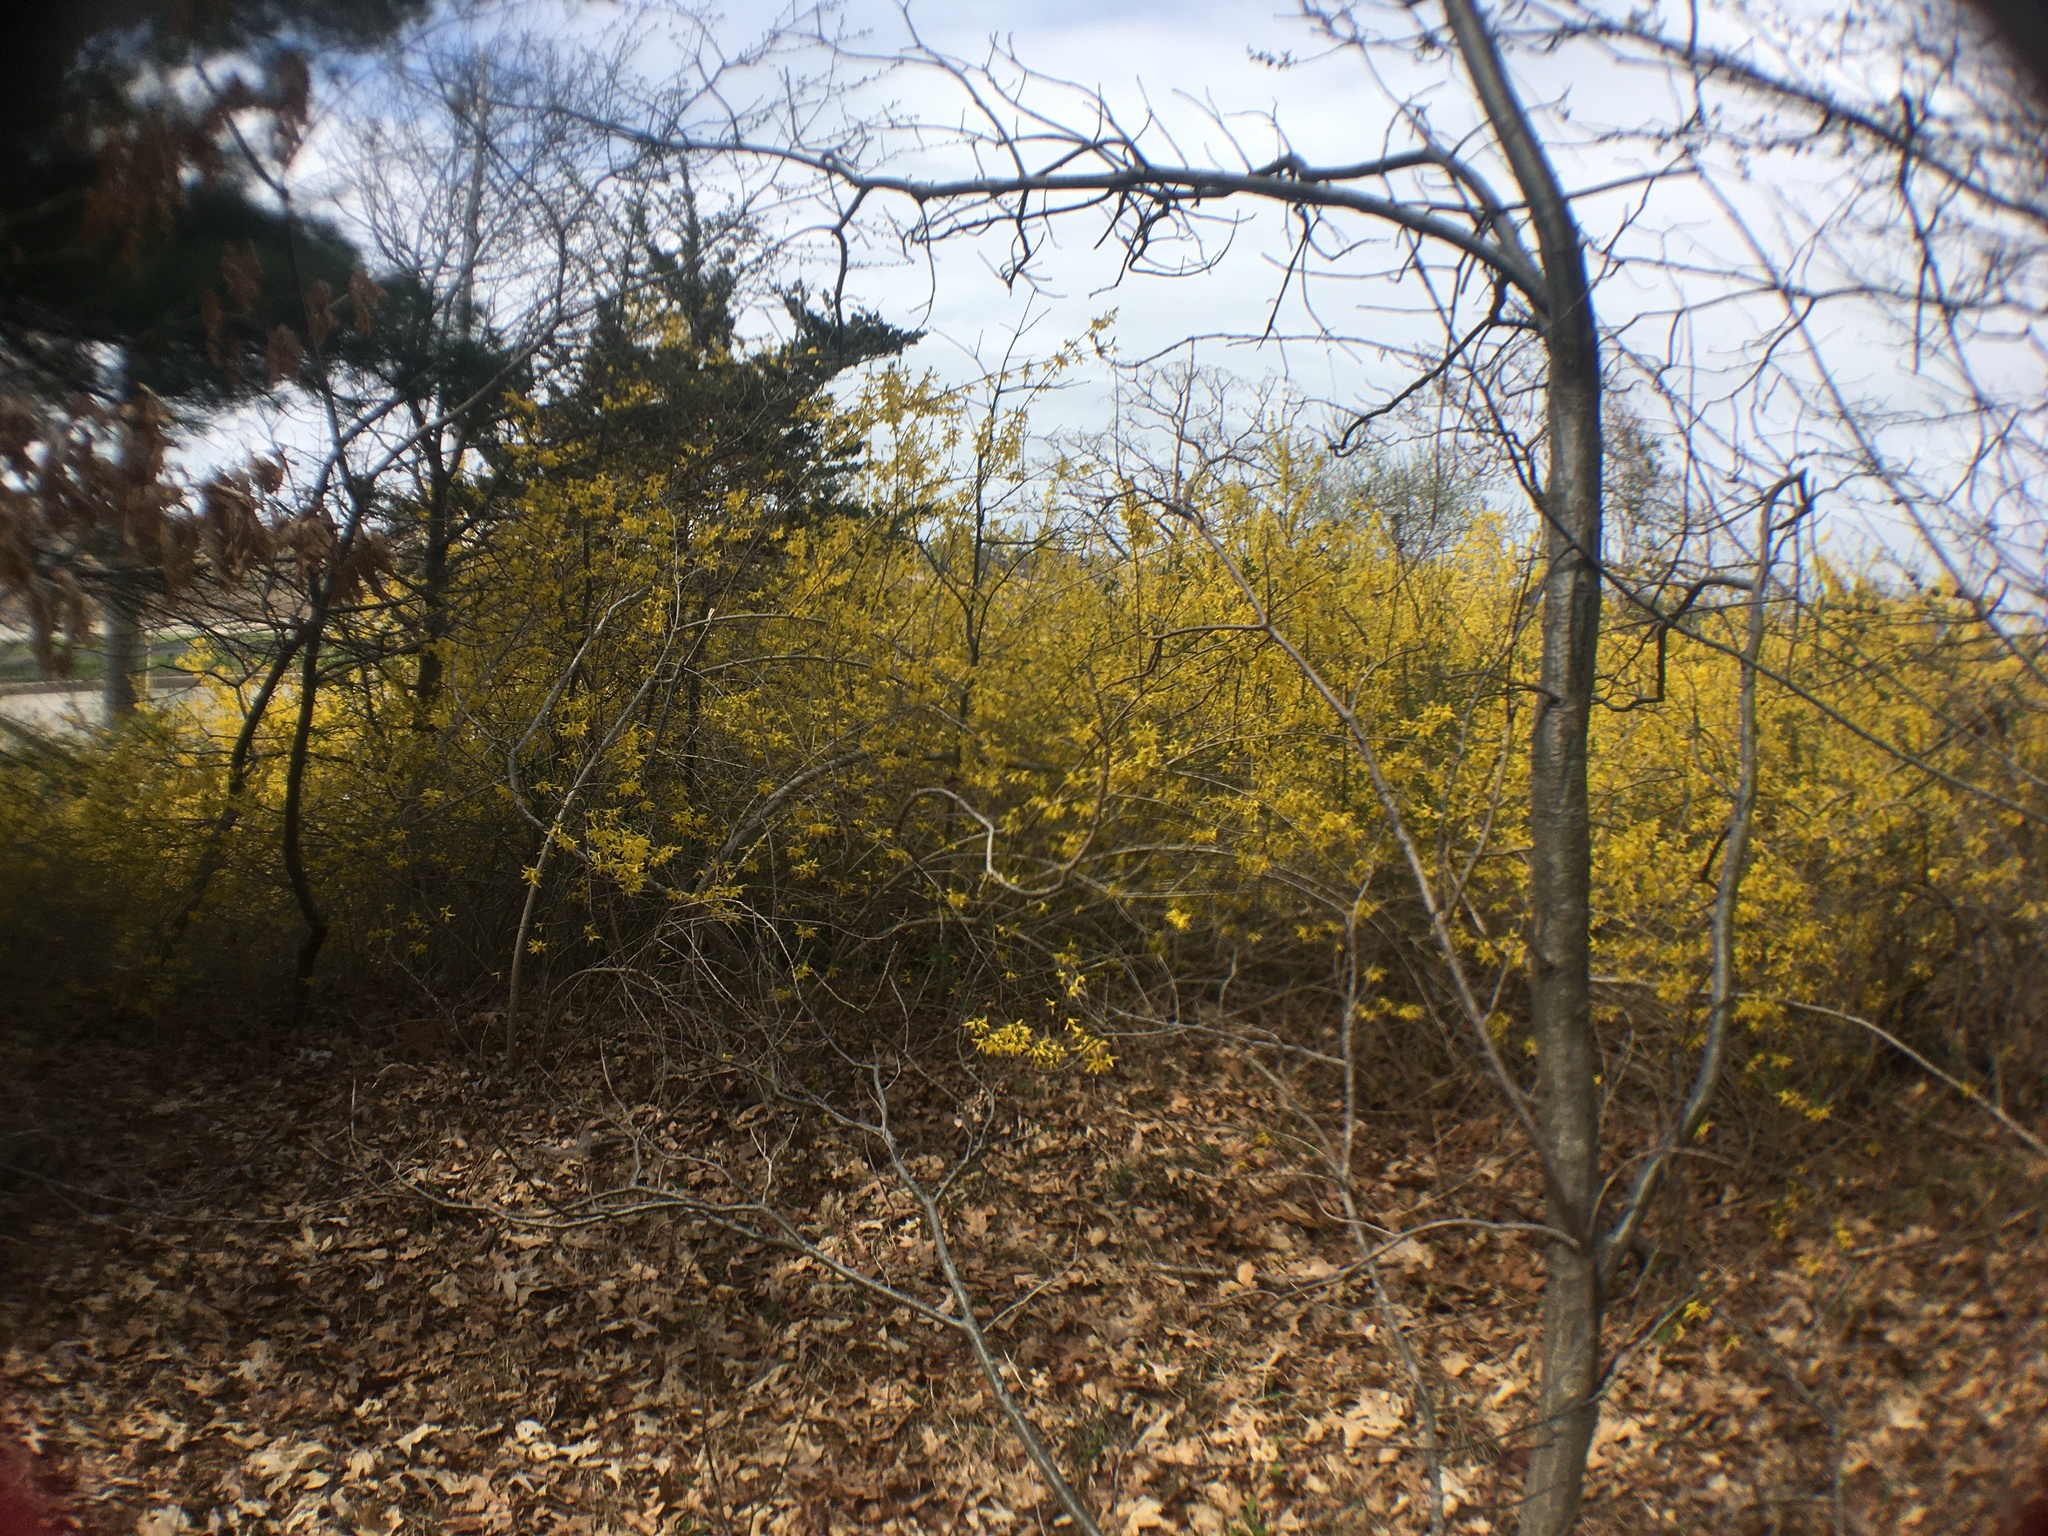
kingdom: Plantae
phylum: Tracheophyta
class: Magnoliopsida
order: Lamiales
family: Oleaceae
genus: Forsythia
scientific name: Forsythia intermedia
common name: Forsythia
